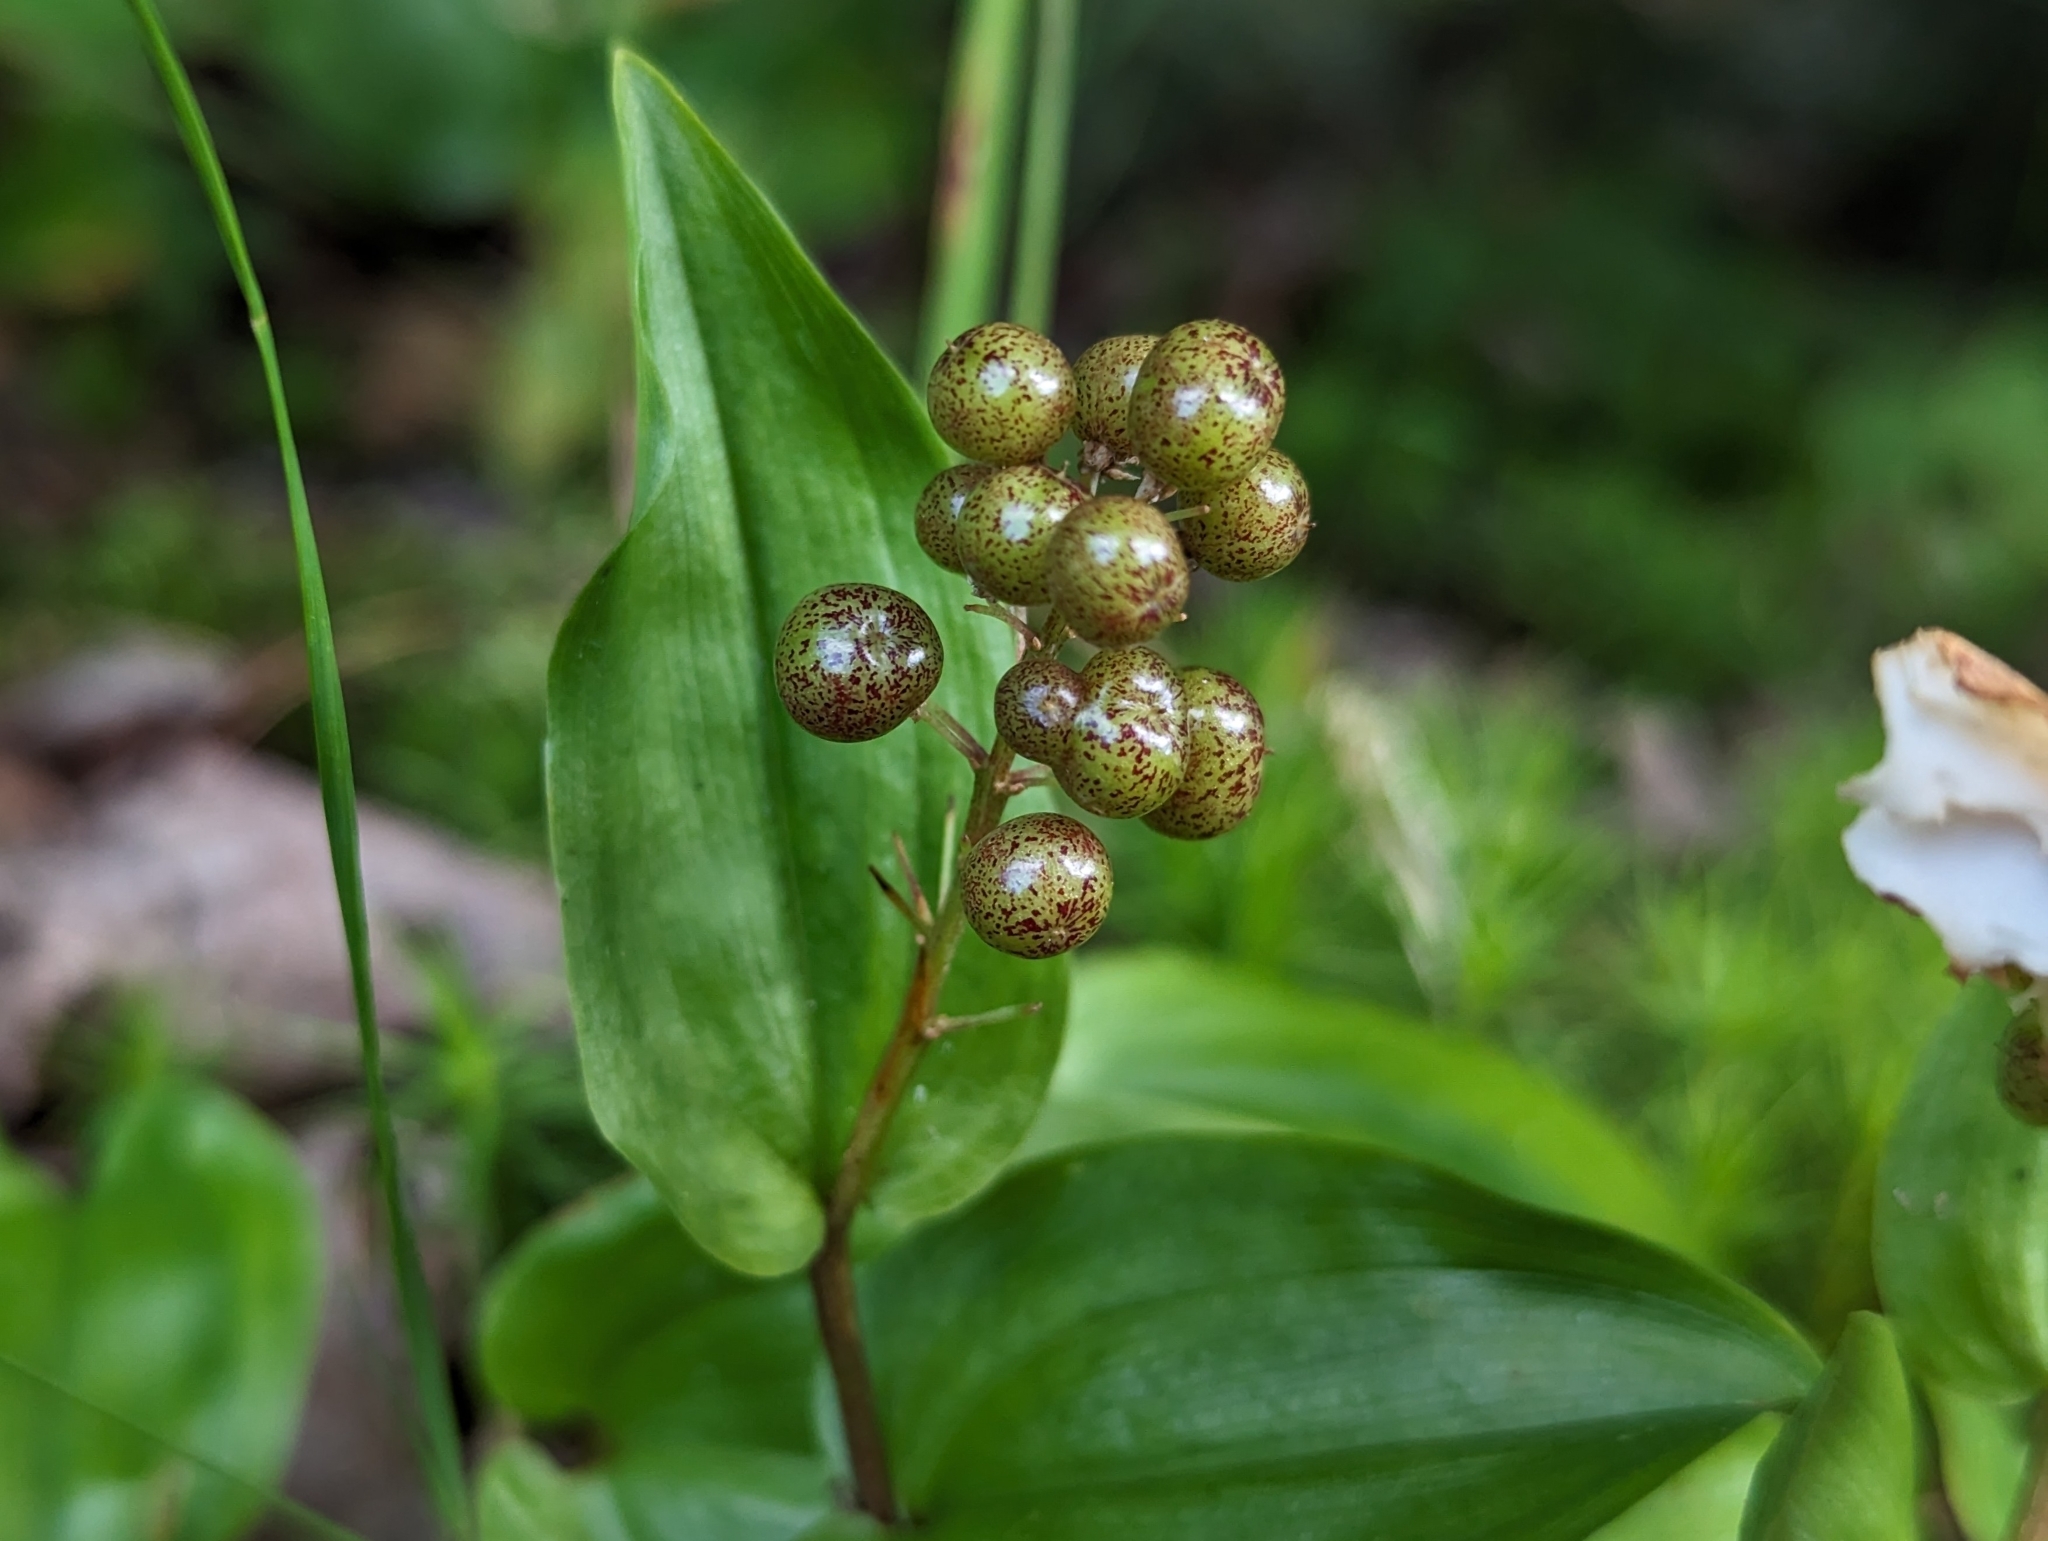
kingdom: Plantae
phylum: Tracheophyta
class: Liliopsida
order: Asparagales
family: Asparagaceae
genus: Maianthemum
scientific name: Maianthemum canadense
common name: False lily-of-the-valley
